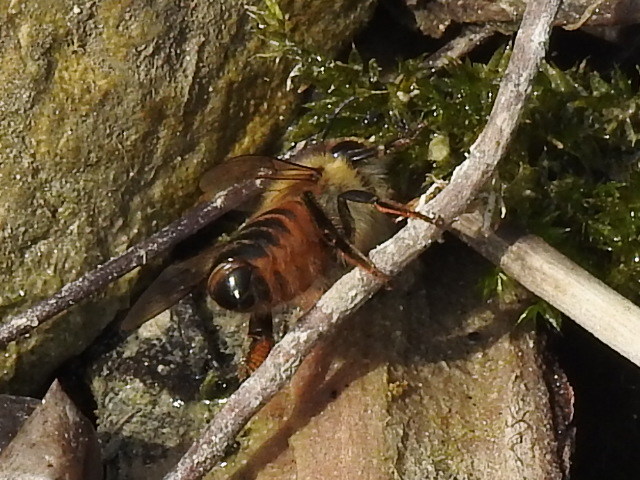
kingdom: Animalia
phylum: Arthropoda
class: Insecta
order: Hymenoptera
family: Apidae
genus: Apis
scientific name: Apis mellifera
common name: Honey bee
